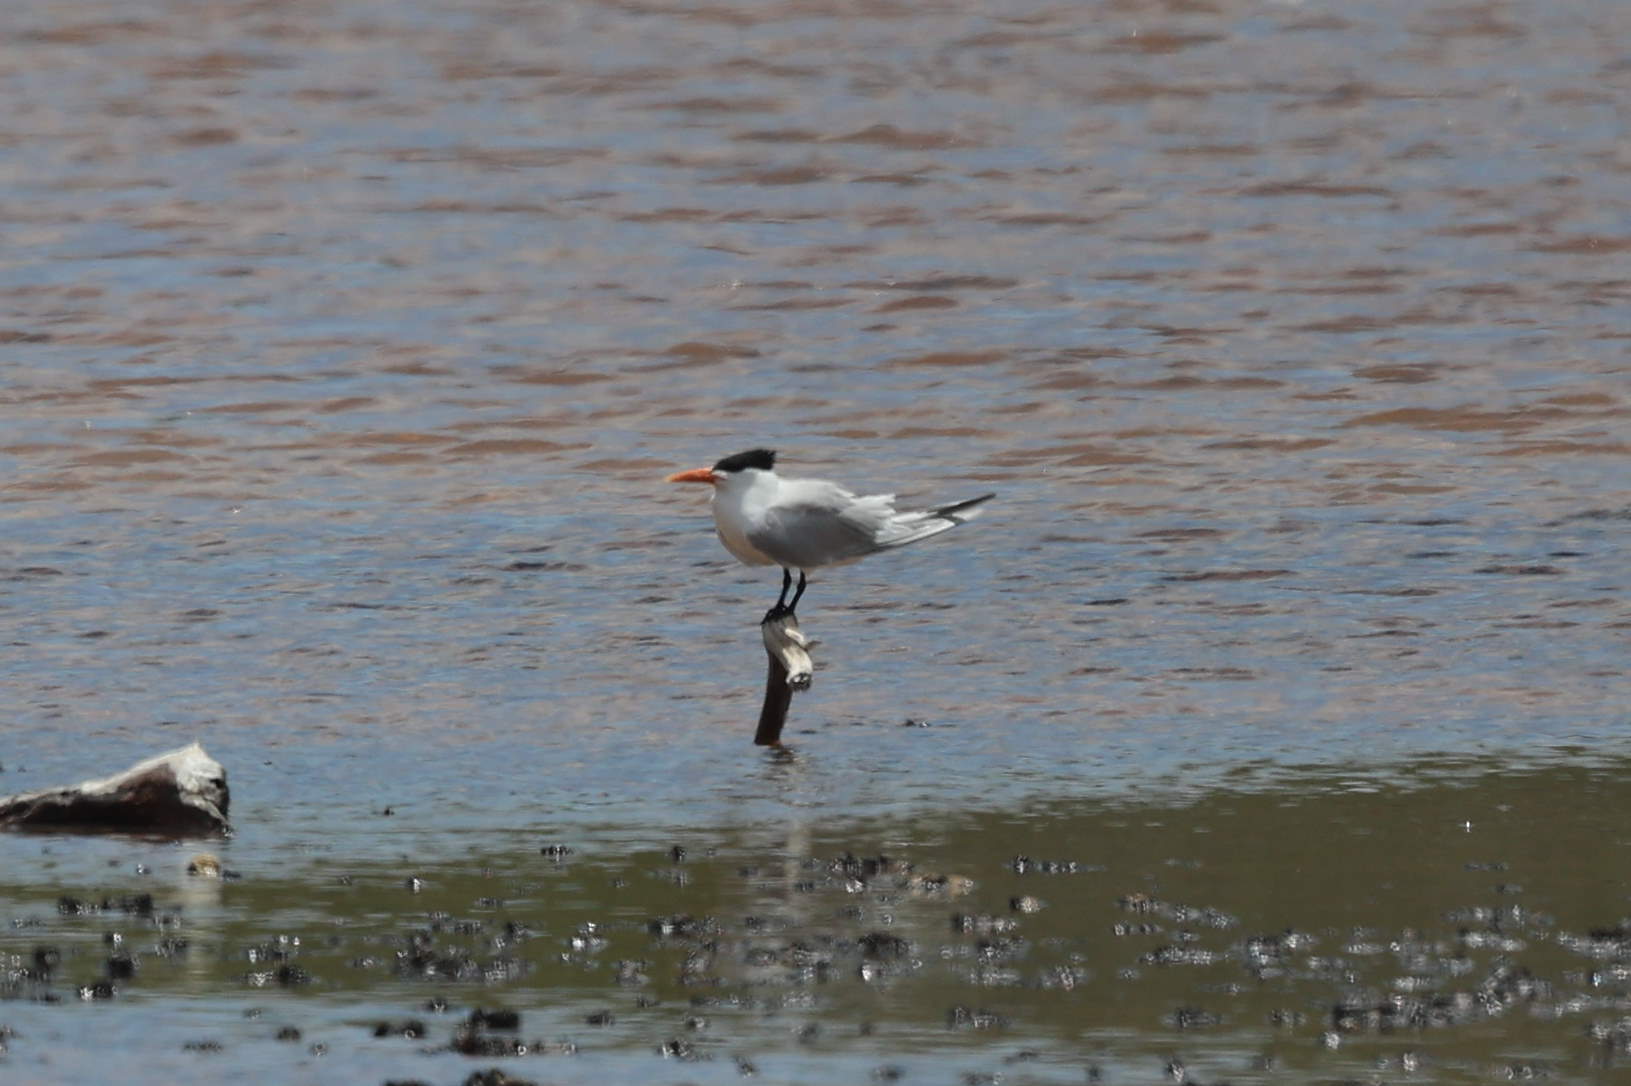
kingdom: Animalia
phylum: Chordata
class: Aves
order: Charadriiformes
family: Laridae
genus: Thalasseus
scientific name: Thalasseus maximus
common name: Royal tern
